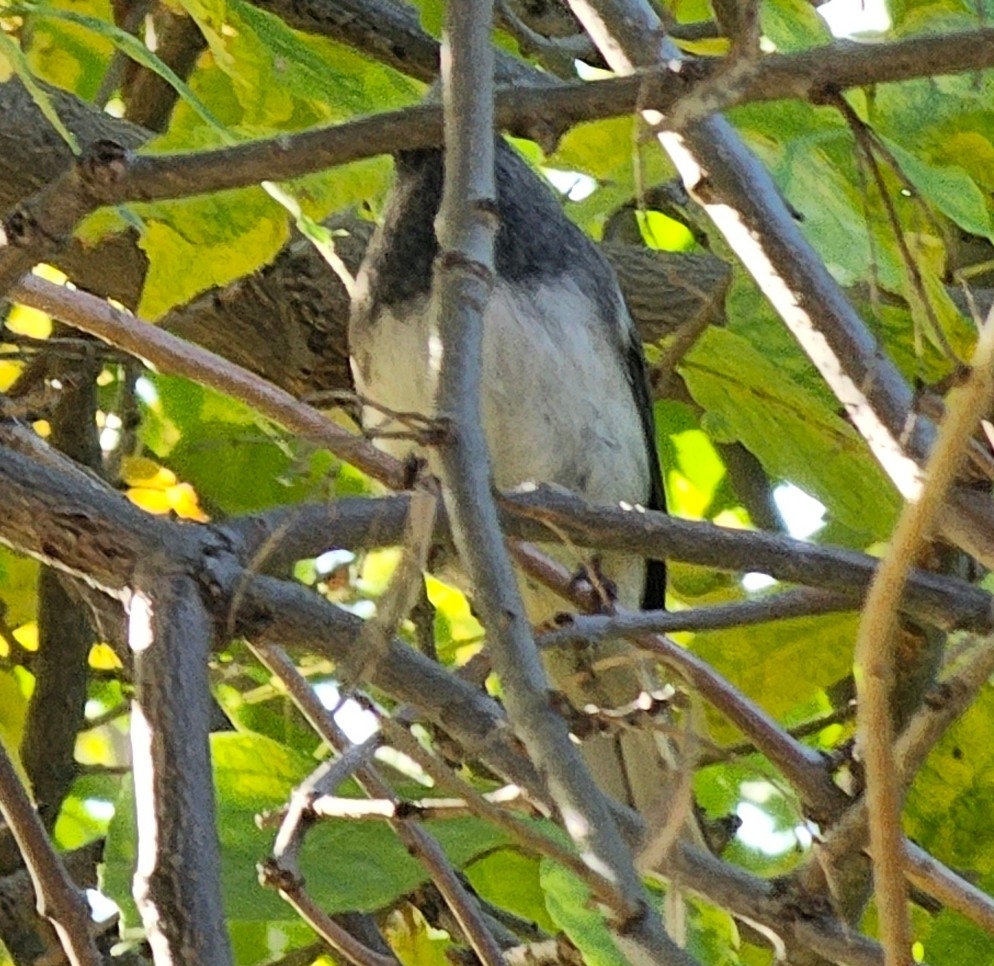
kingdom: Animalia
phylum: Chordata
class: Aves
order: Passeriformes
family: Passerellidae
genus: Junco
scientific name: Junco hyemalis
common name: Dark-eyed junco
